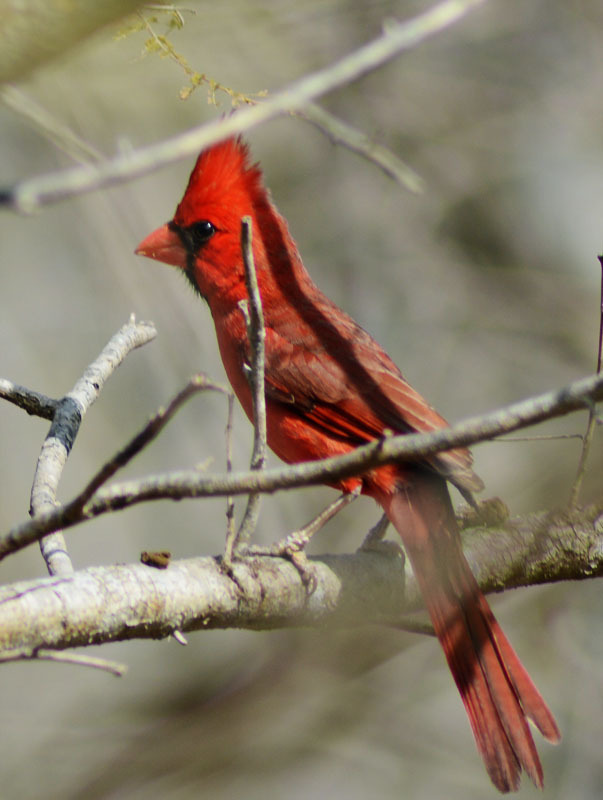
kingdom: Animalia
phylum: Chordata
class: Aves
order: Passeriformes
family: Cardinalidae
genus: Cardinalis
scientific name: Cardinalis cardinalis
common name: Northern cardinal
